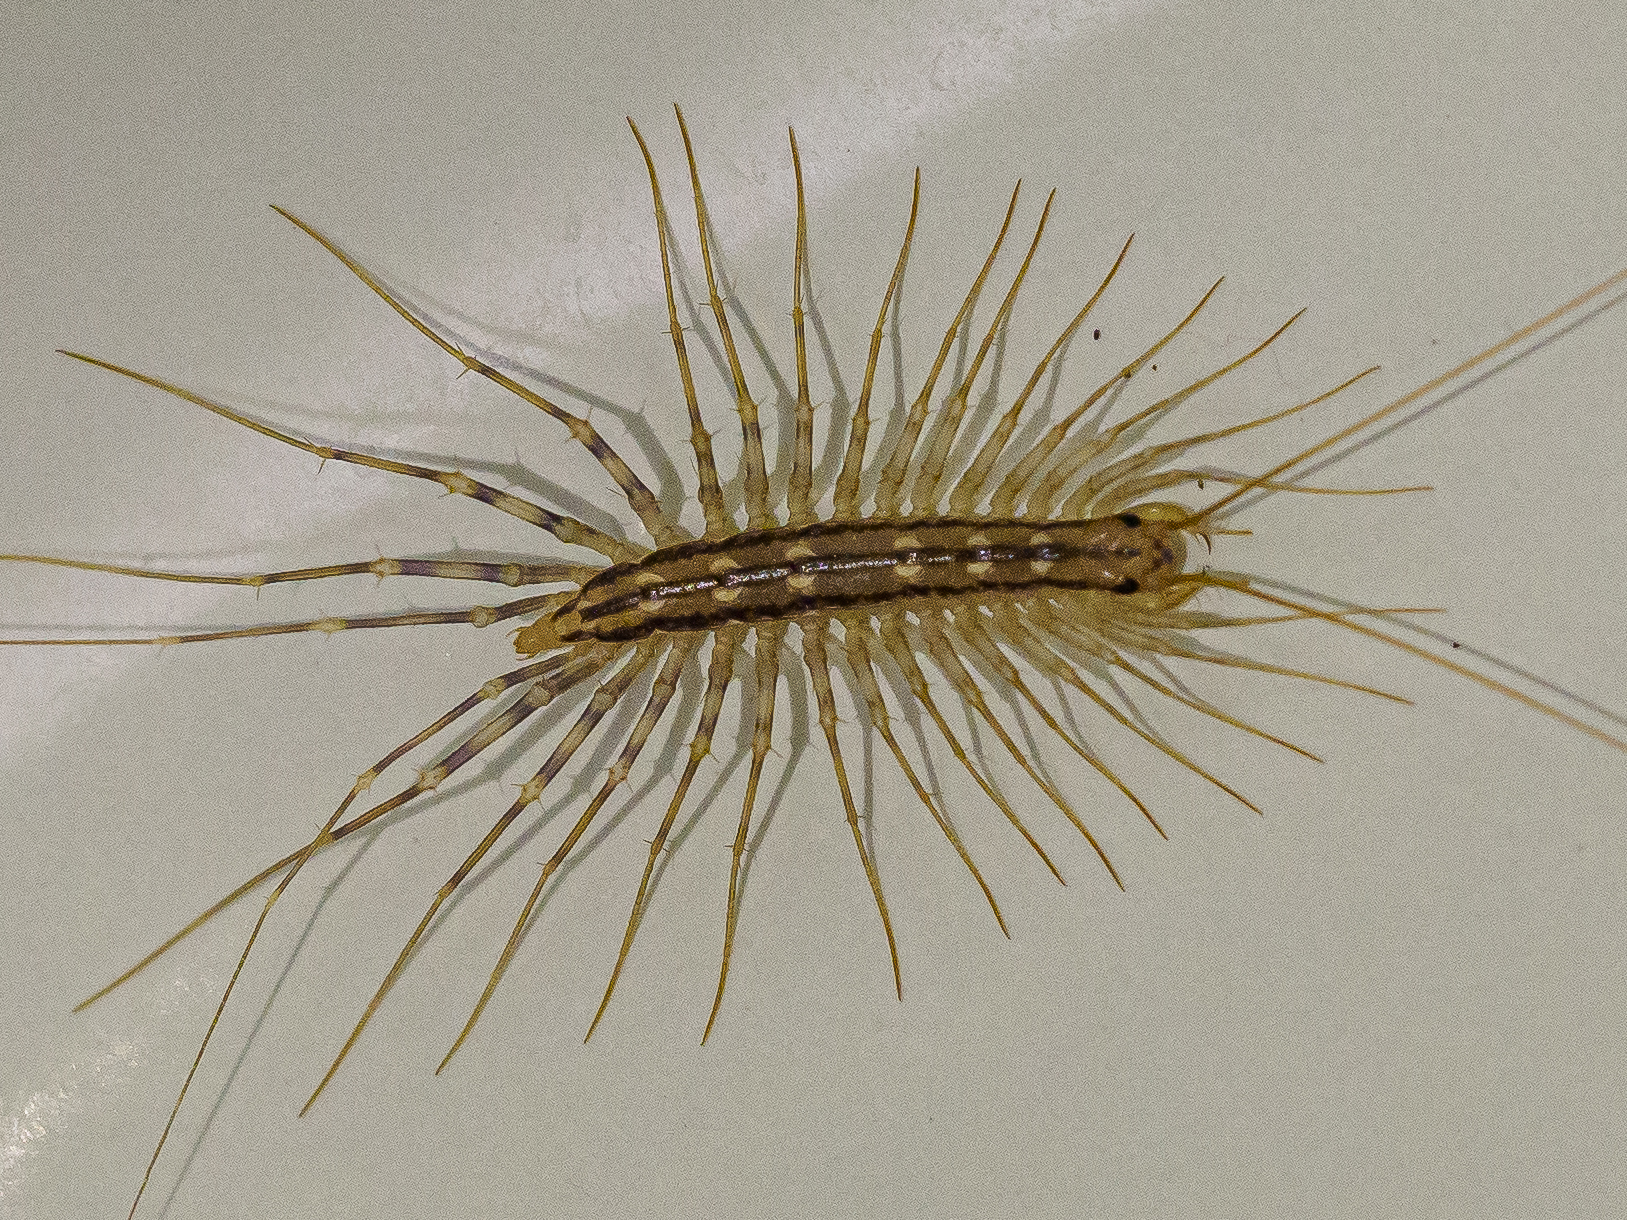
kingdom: Animalia
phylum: Arthropoda
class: Chilopoda
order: Scutigeromorpha
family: Scutigeridae
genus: Scutigera
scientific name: Scutigera coleoptrata
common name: House centipede
